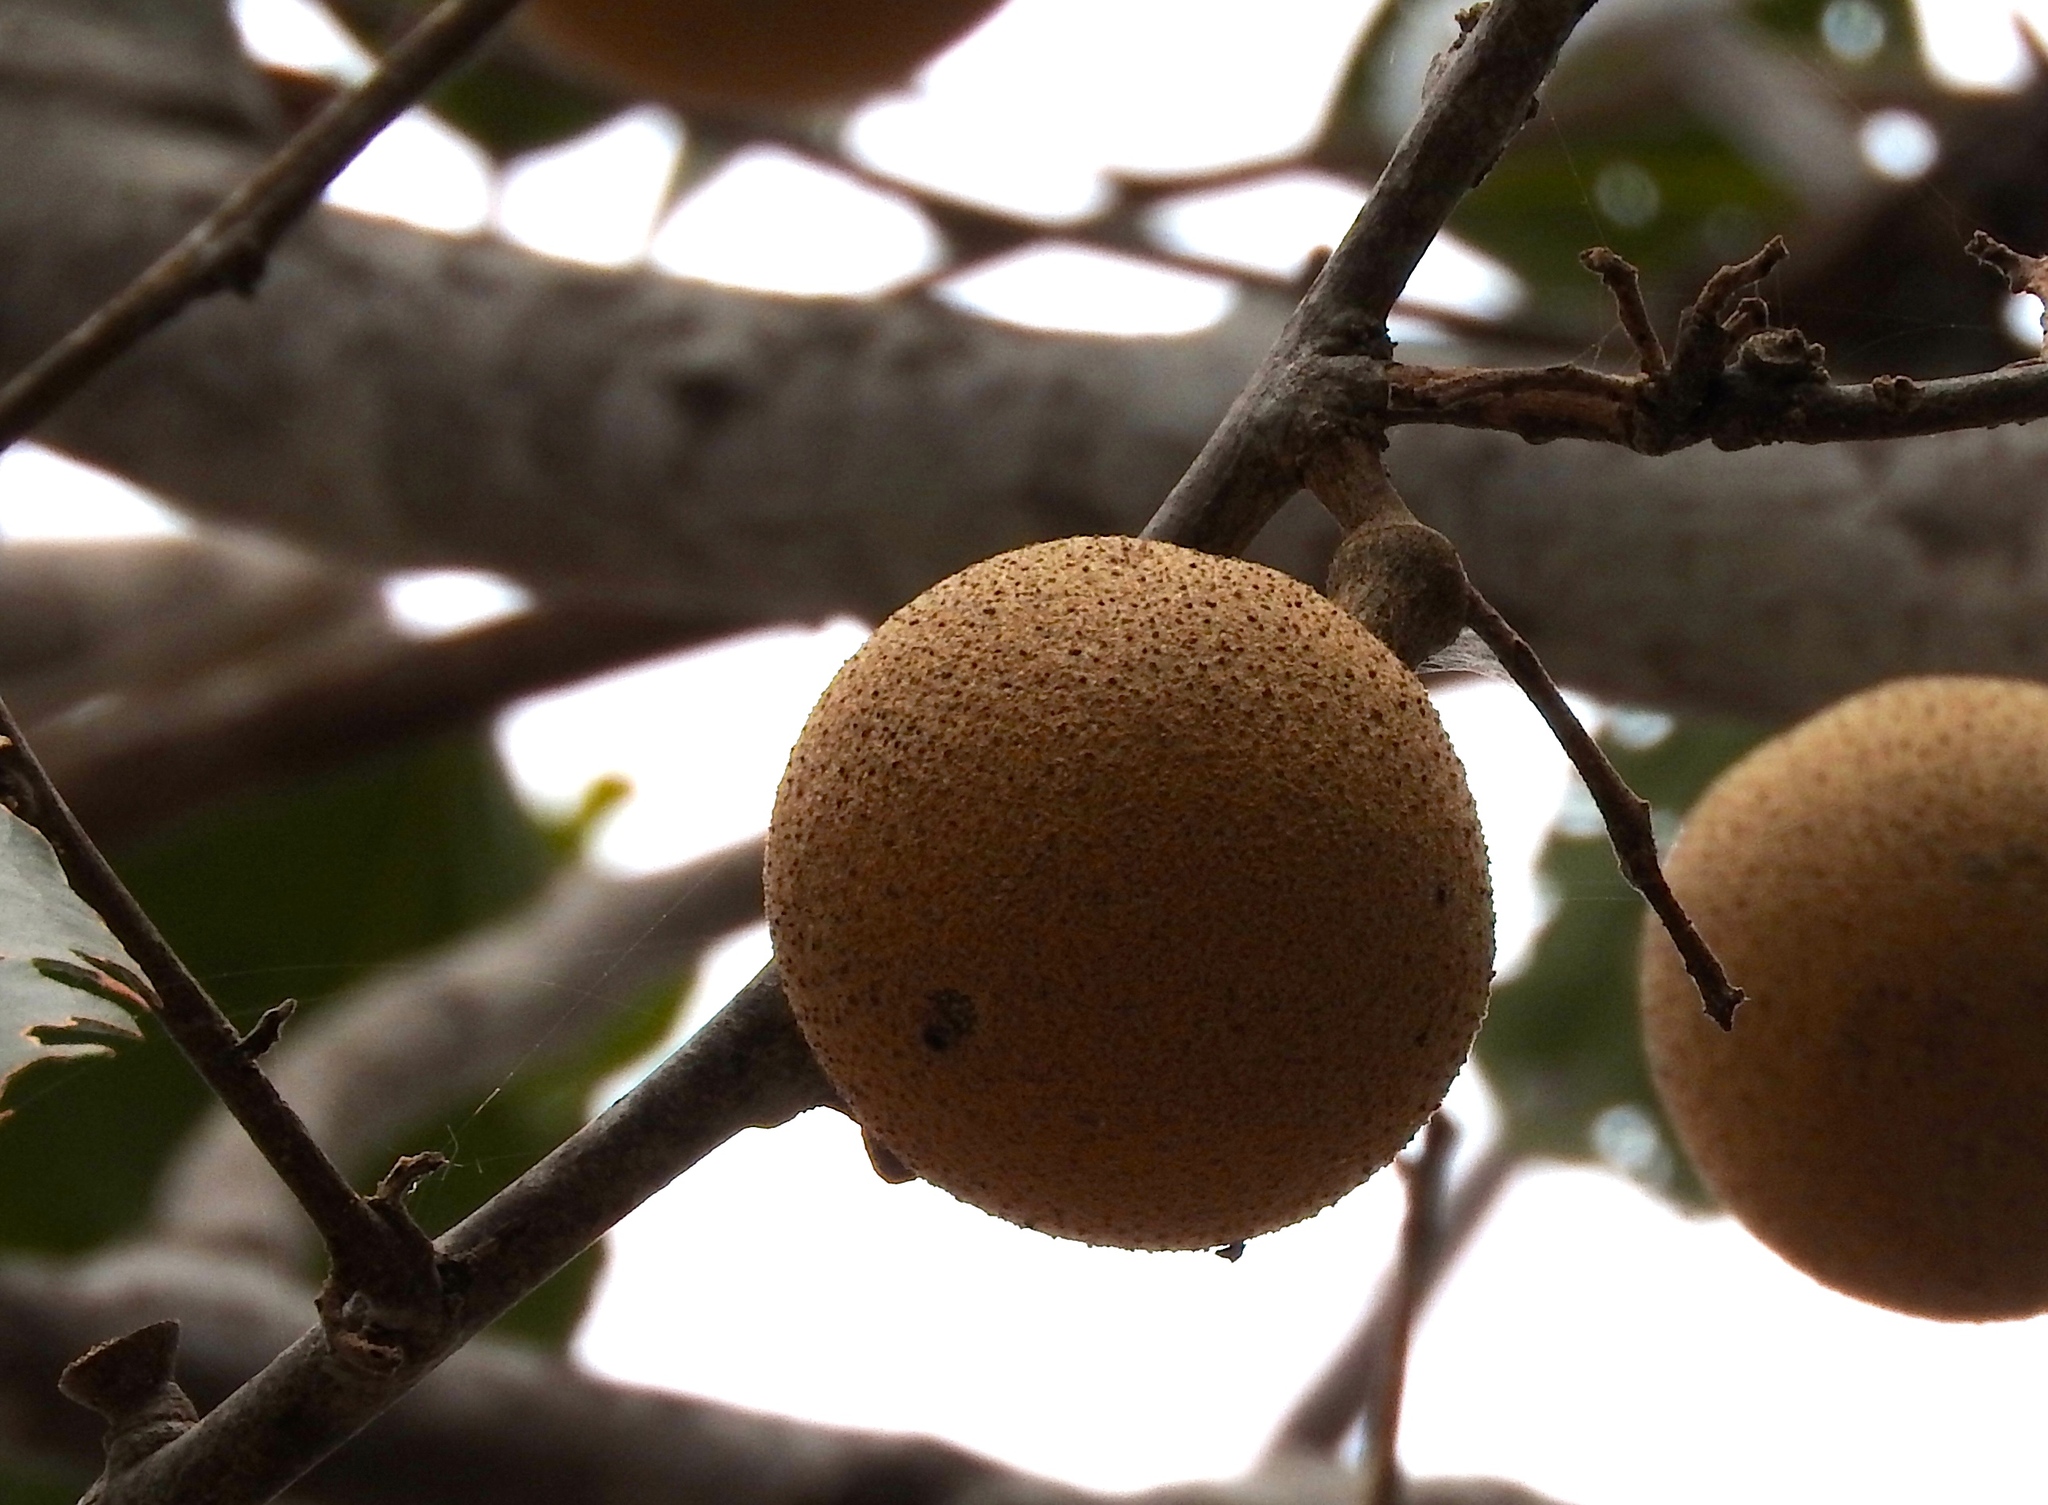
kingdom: Plantae
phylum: Tracheophyta
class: Magnoliopsida
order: Brassicales
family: Capparaceae
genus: Morisonia
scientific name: Morisonia americana
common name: Wild mesple
